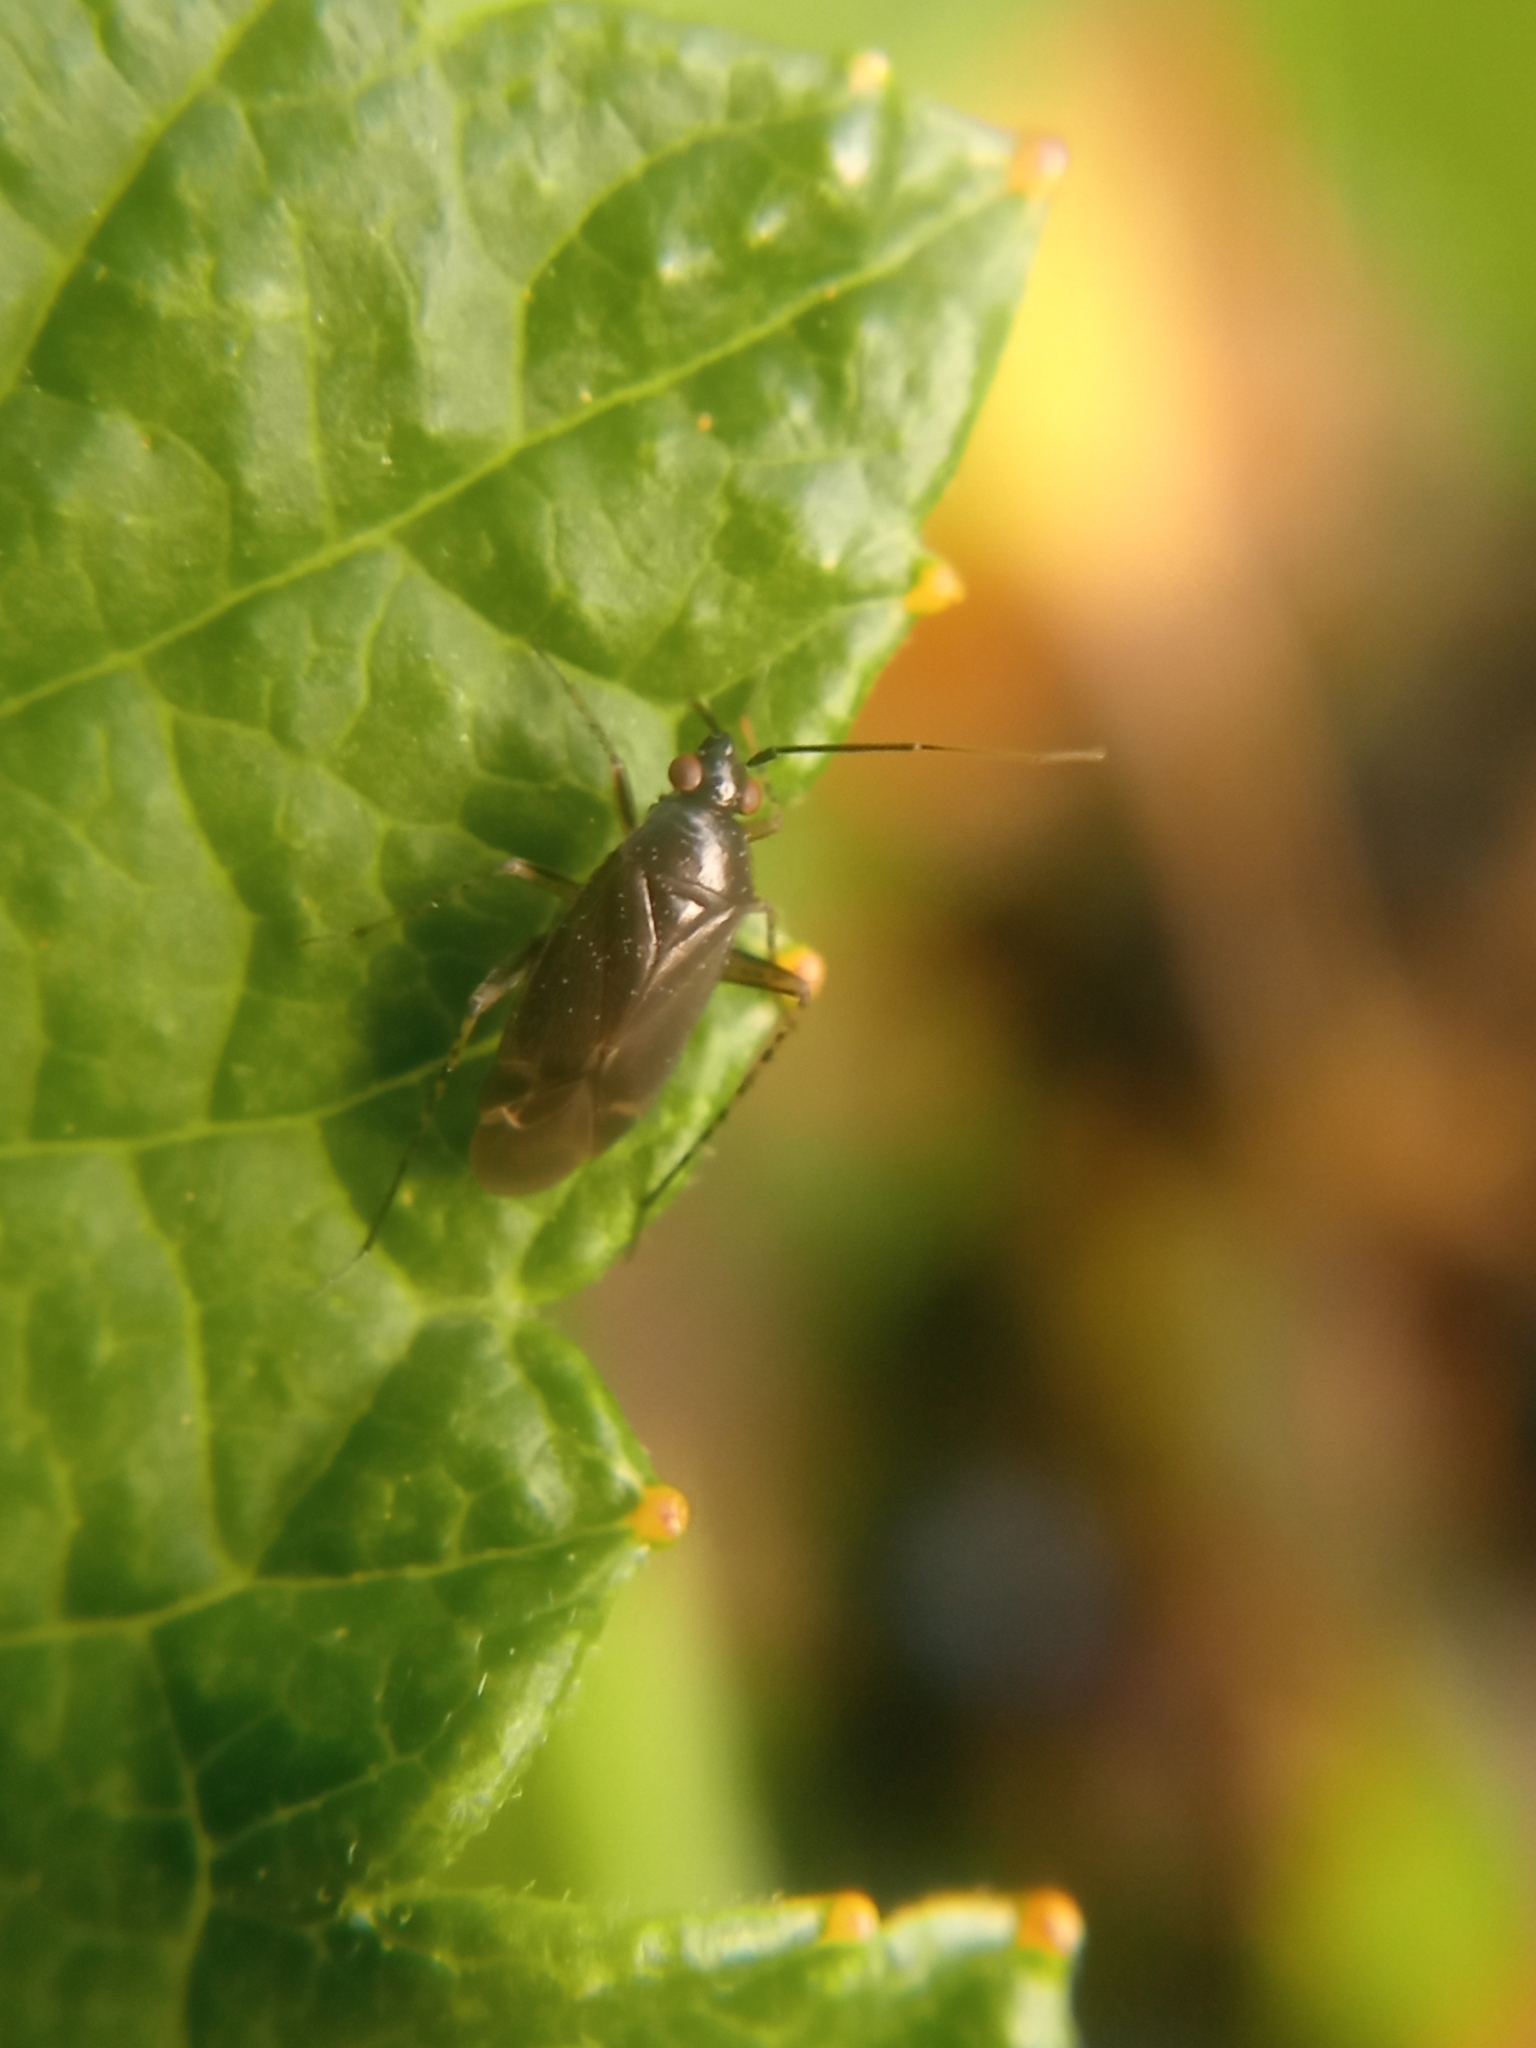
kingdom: Animalia
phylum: Arthropoda
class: Insecta
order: Hemiptera
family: Miridae
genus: Plagiognathus
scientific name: Plagiognathus arbustorum
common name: Plant bug
